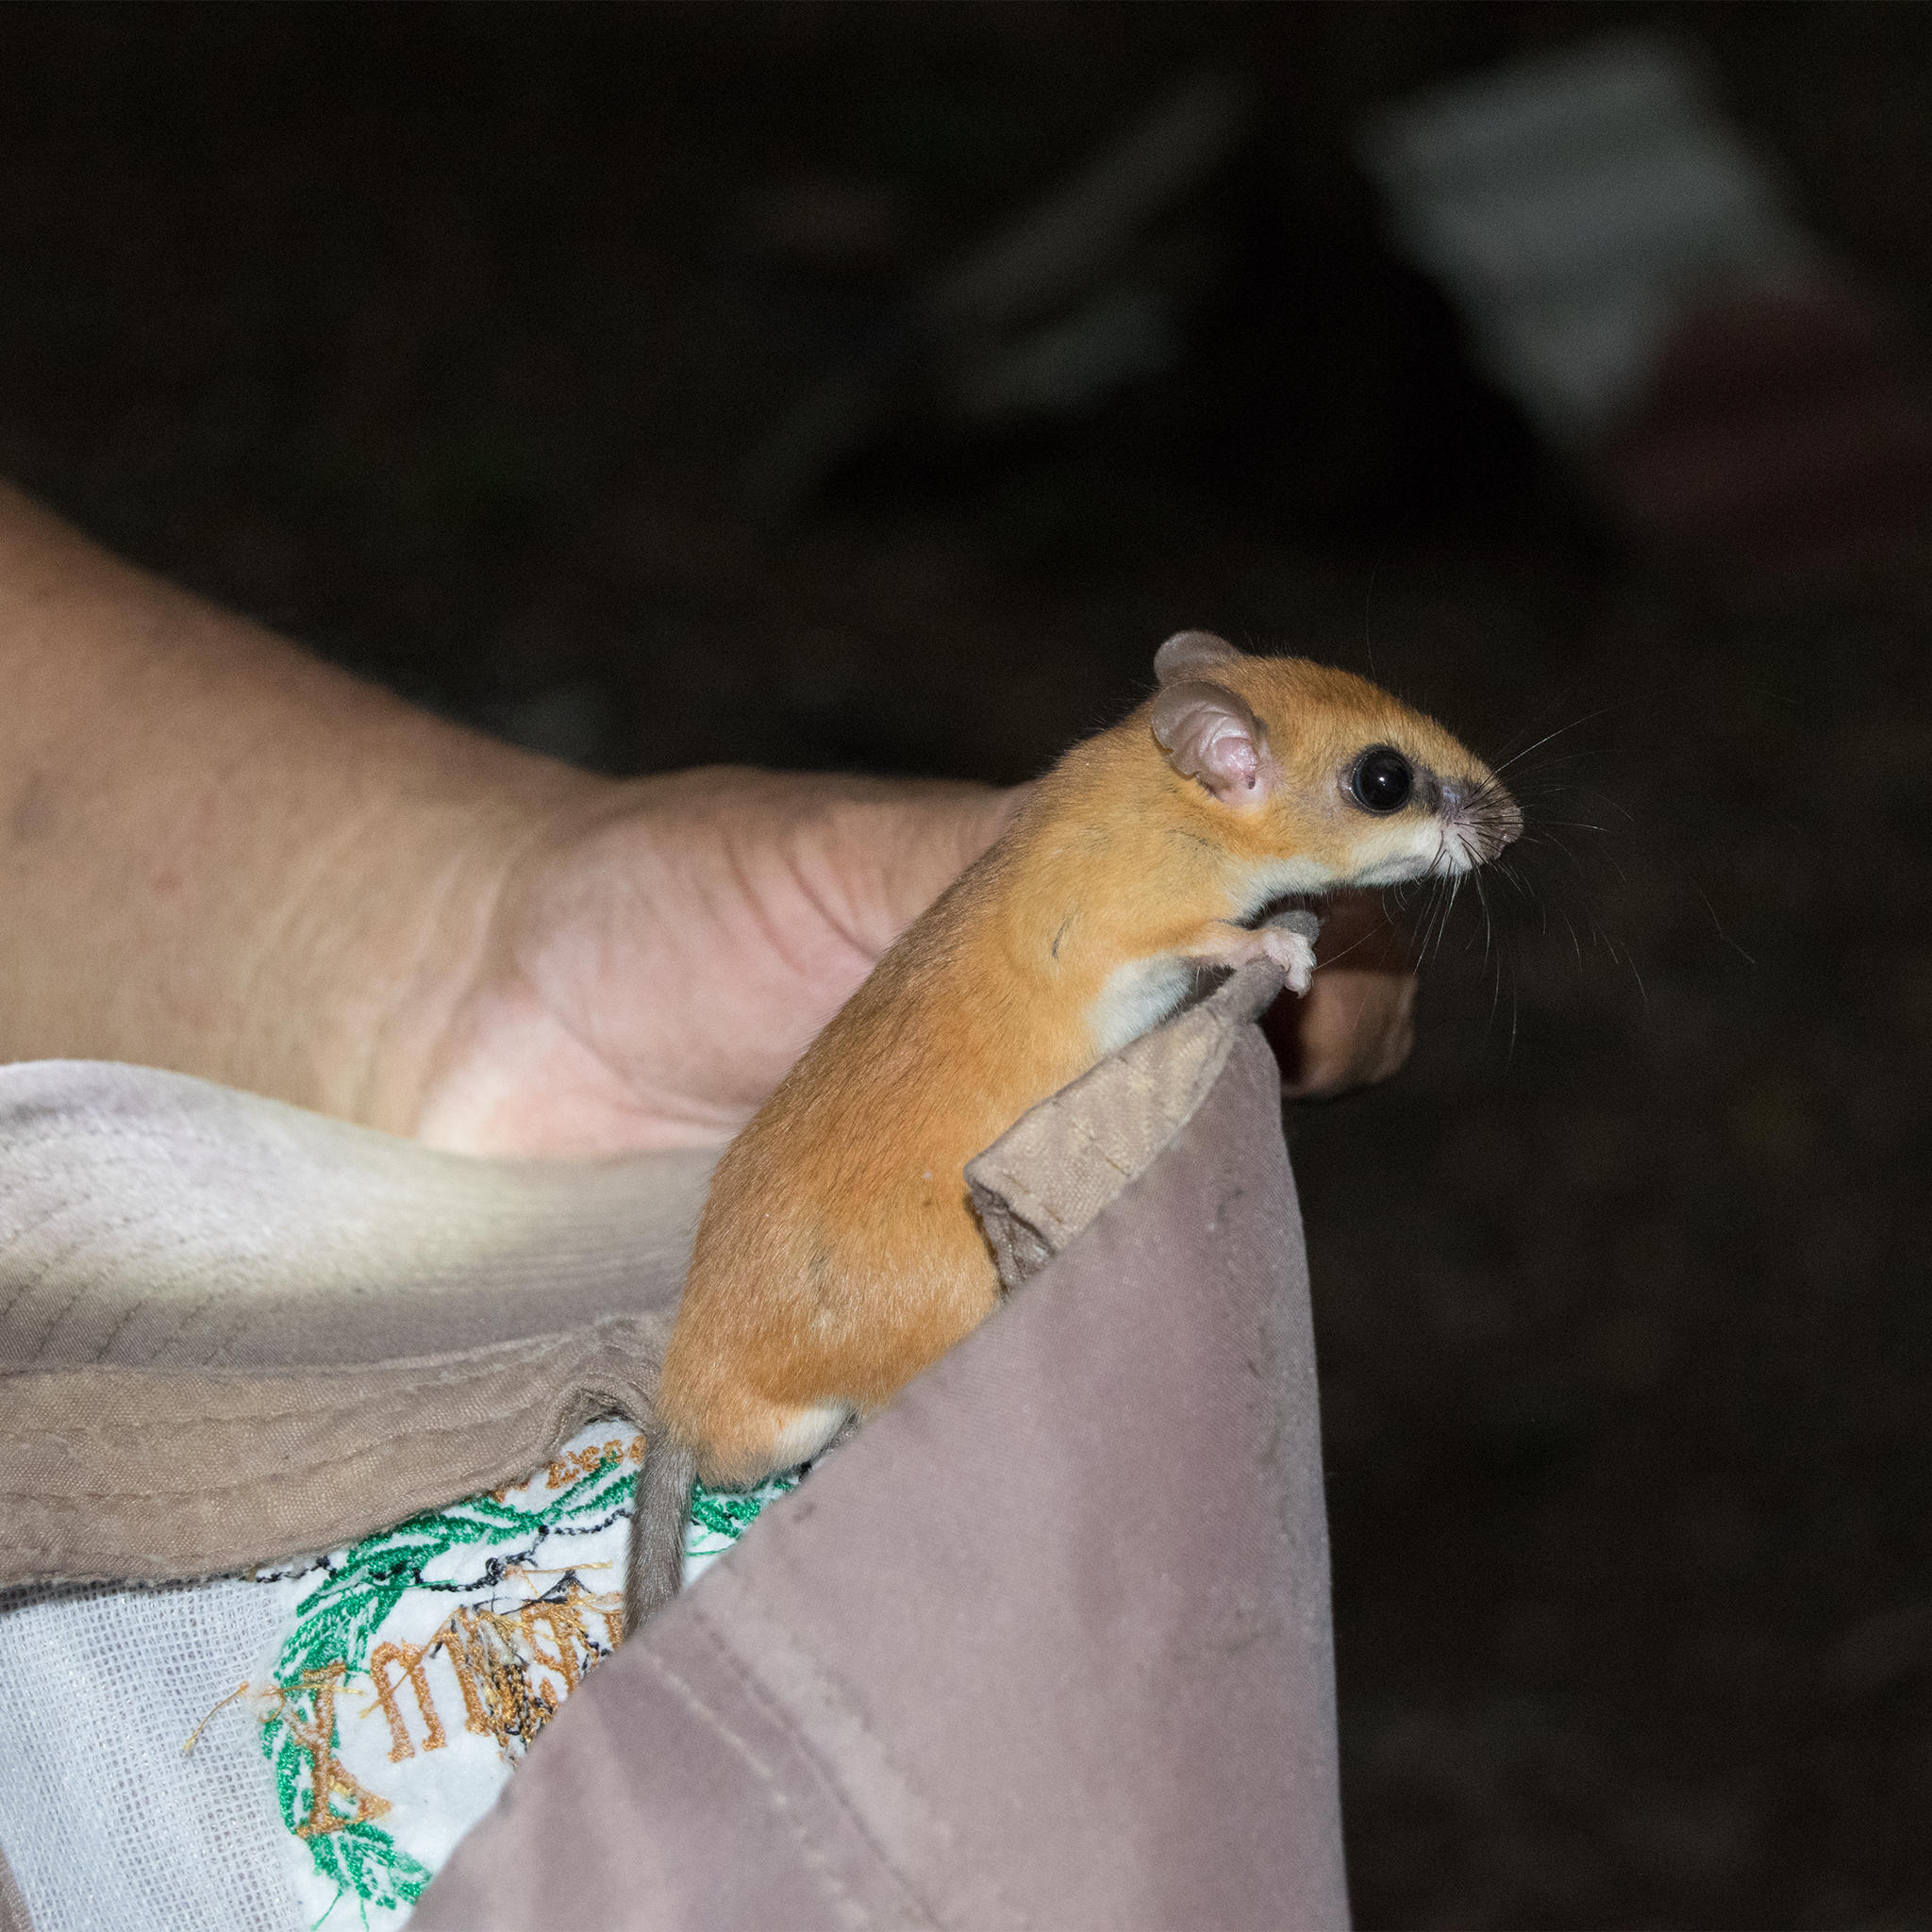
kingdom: Animalia
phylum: Chordata
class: Mammalia
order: Rodentia
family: Cricetidae
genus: Otonyctomys
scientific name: Otonyctomys hatti
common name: Hatt's vesper rat
